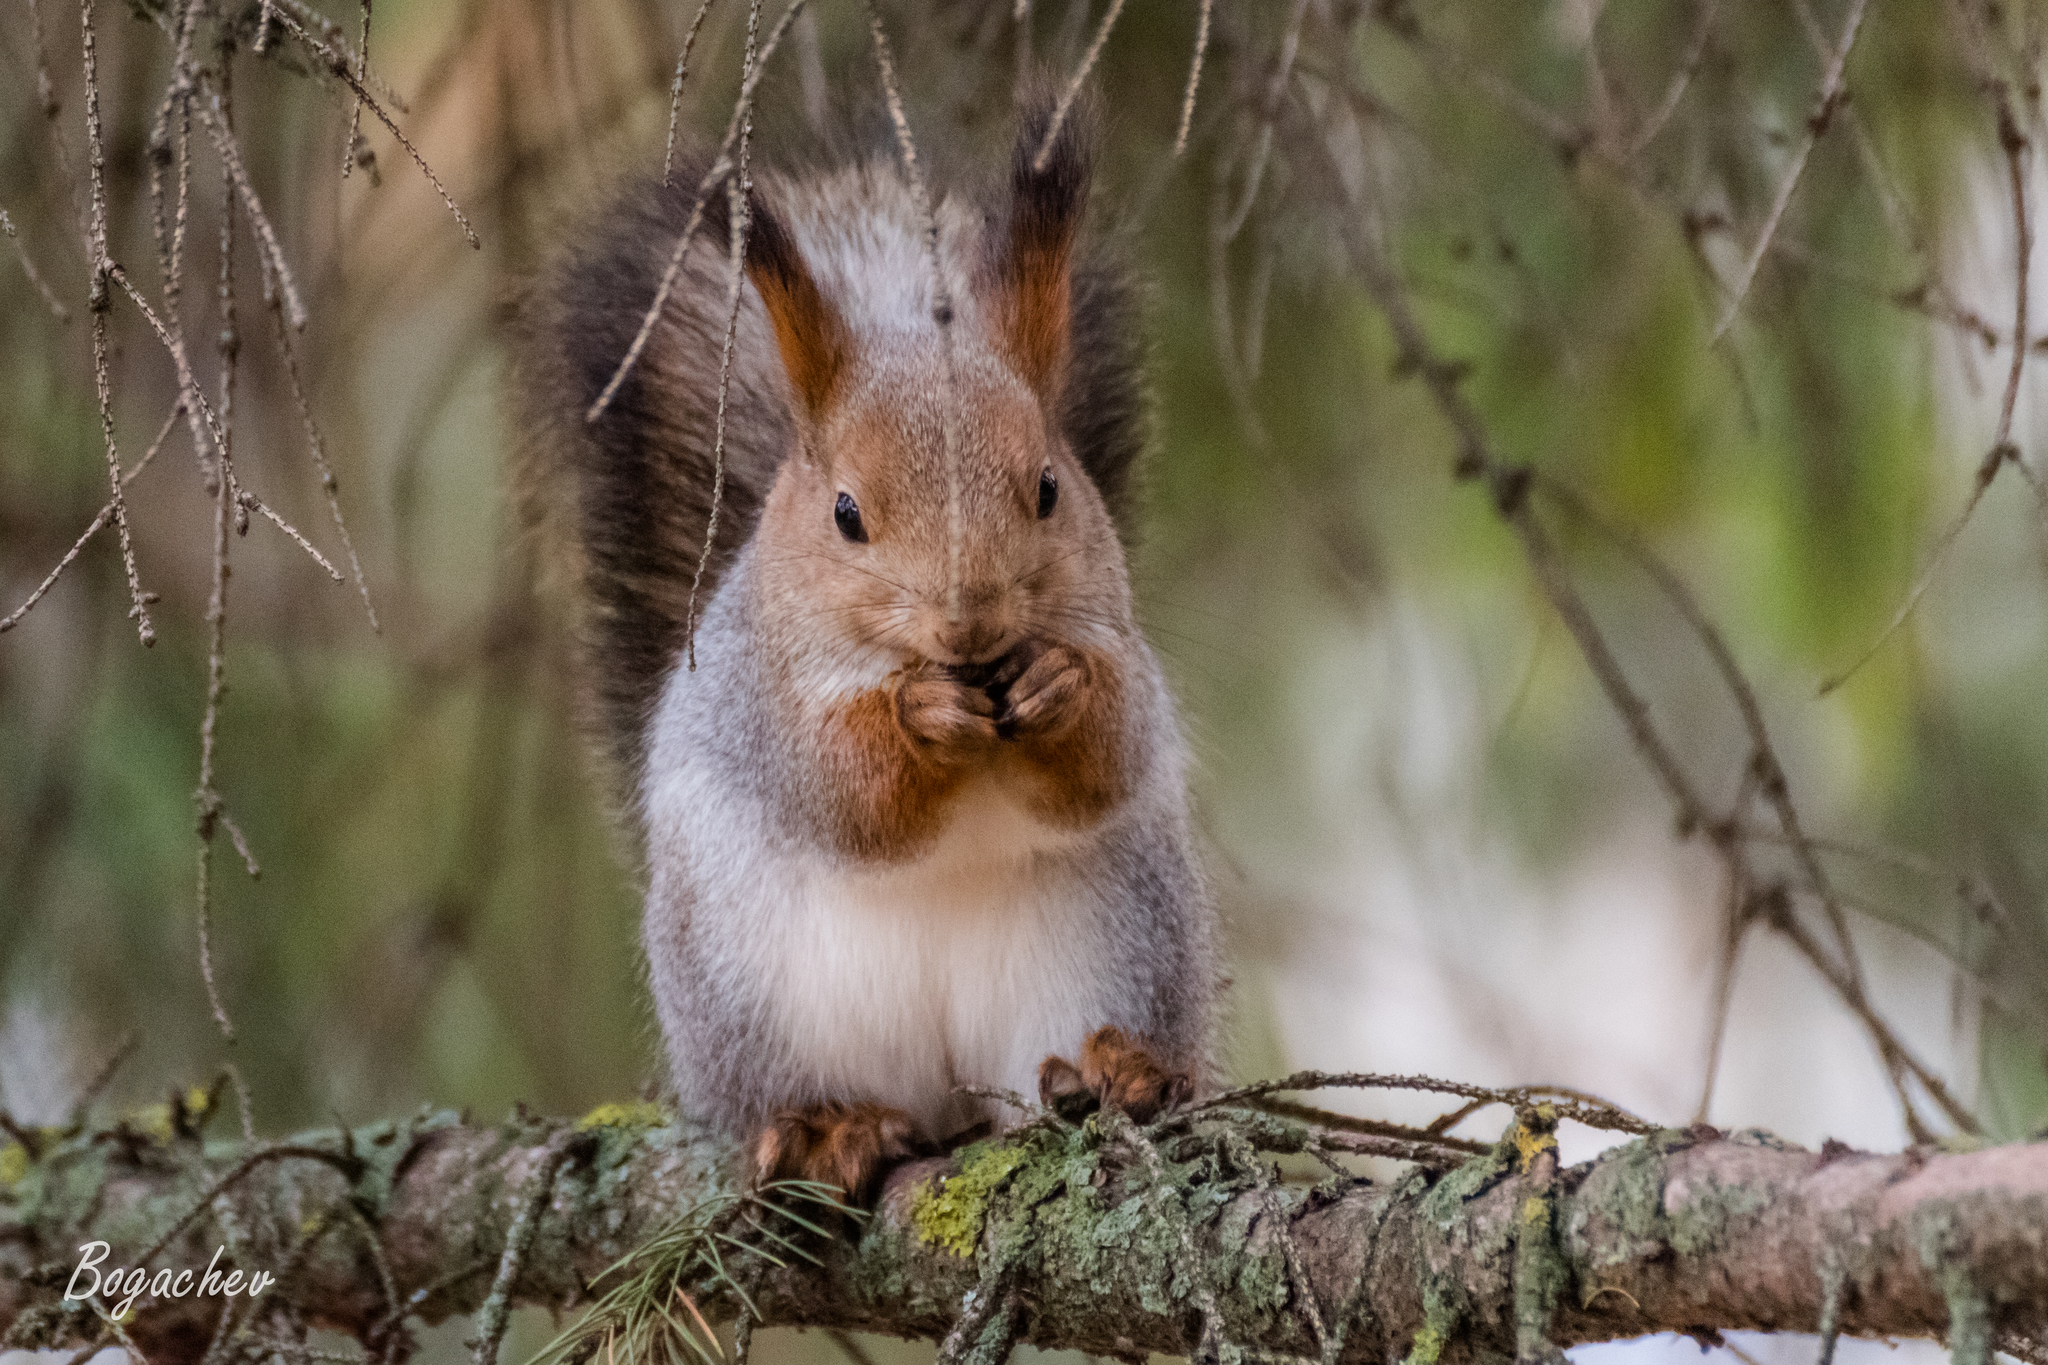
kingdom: Animalia
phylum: Chordata
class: Mammalia
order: Rodentia
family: Sciuridae
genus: Sciurus
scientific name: Sciurus vulgaris
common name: Eurasian red squirrel
